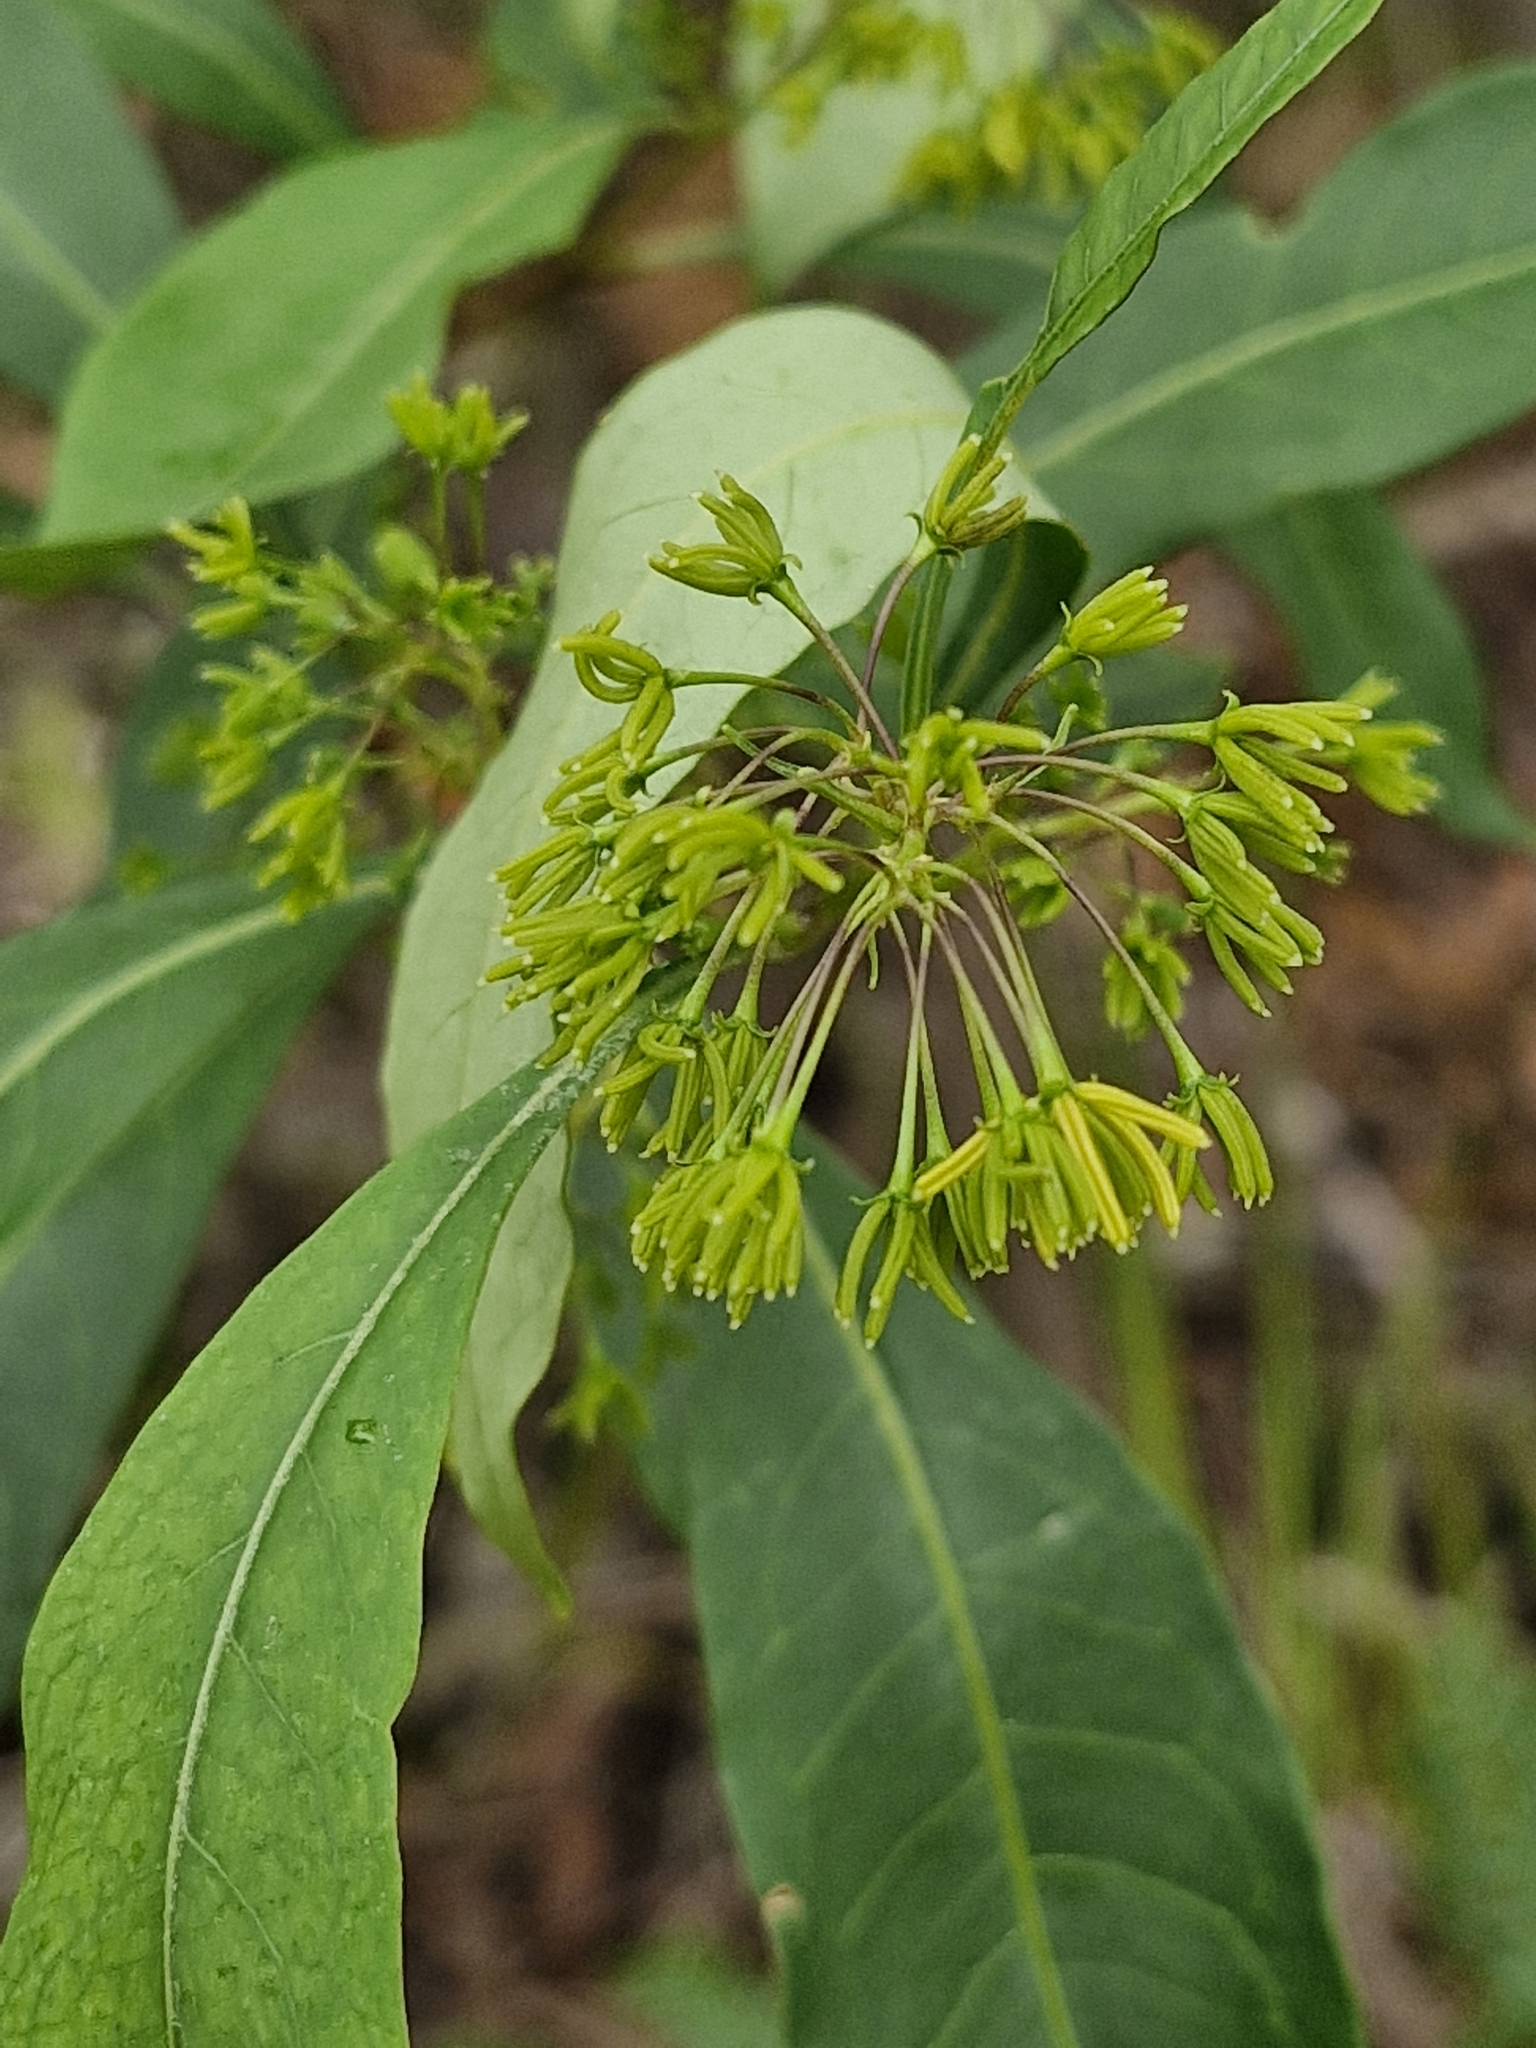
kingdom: Plantae
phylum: Tracheophyta
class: Magnoliopsida
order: Sapindales
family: Sapindaceae
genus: Dodonaea
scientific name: Dodonaea triquetra
